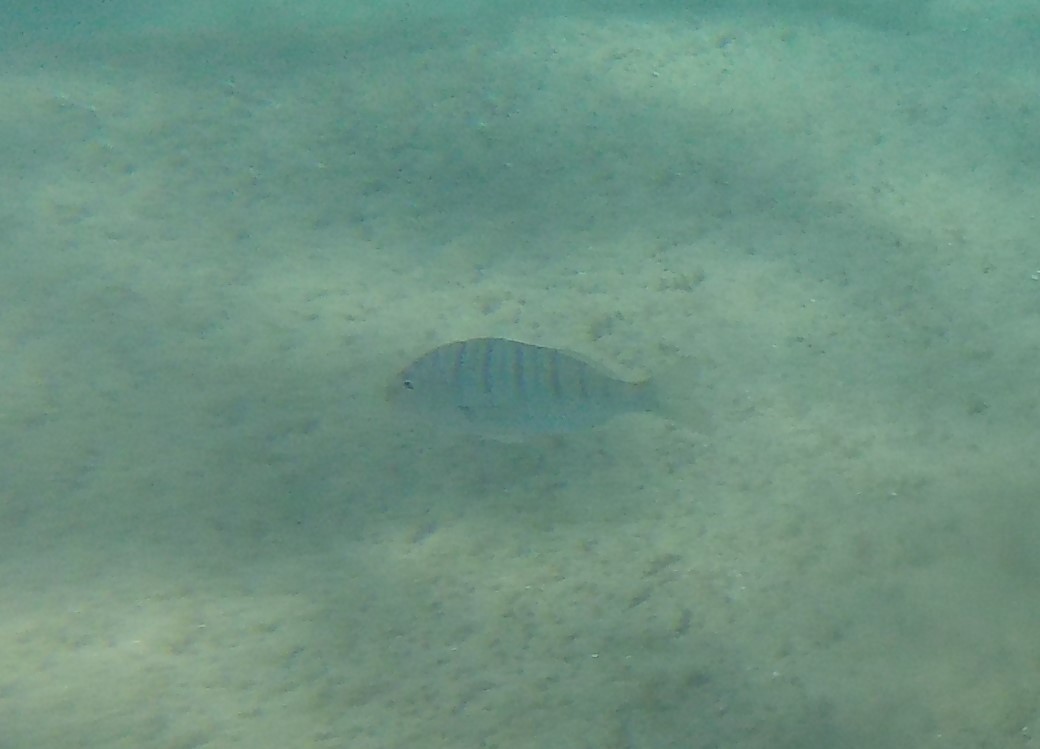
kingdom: Animalia
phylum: Chordata
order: Perciformes
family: Sparidae
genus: Lithognathus
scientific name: Lithognathus mormyrus
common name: Sand steenbras
